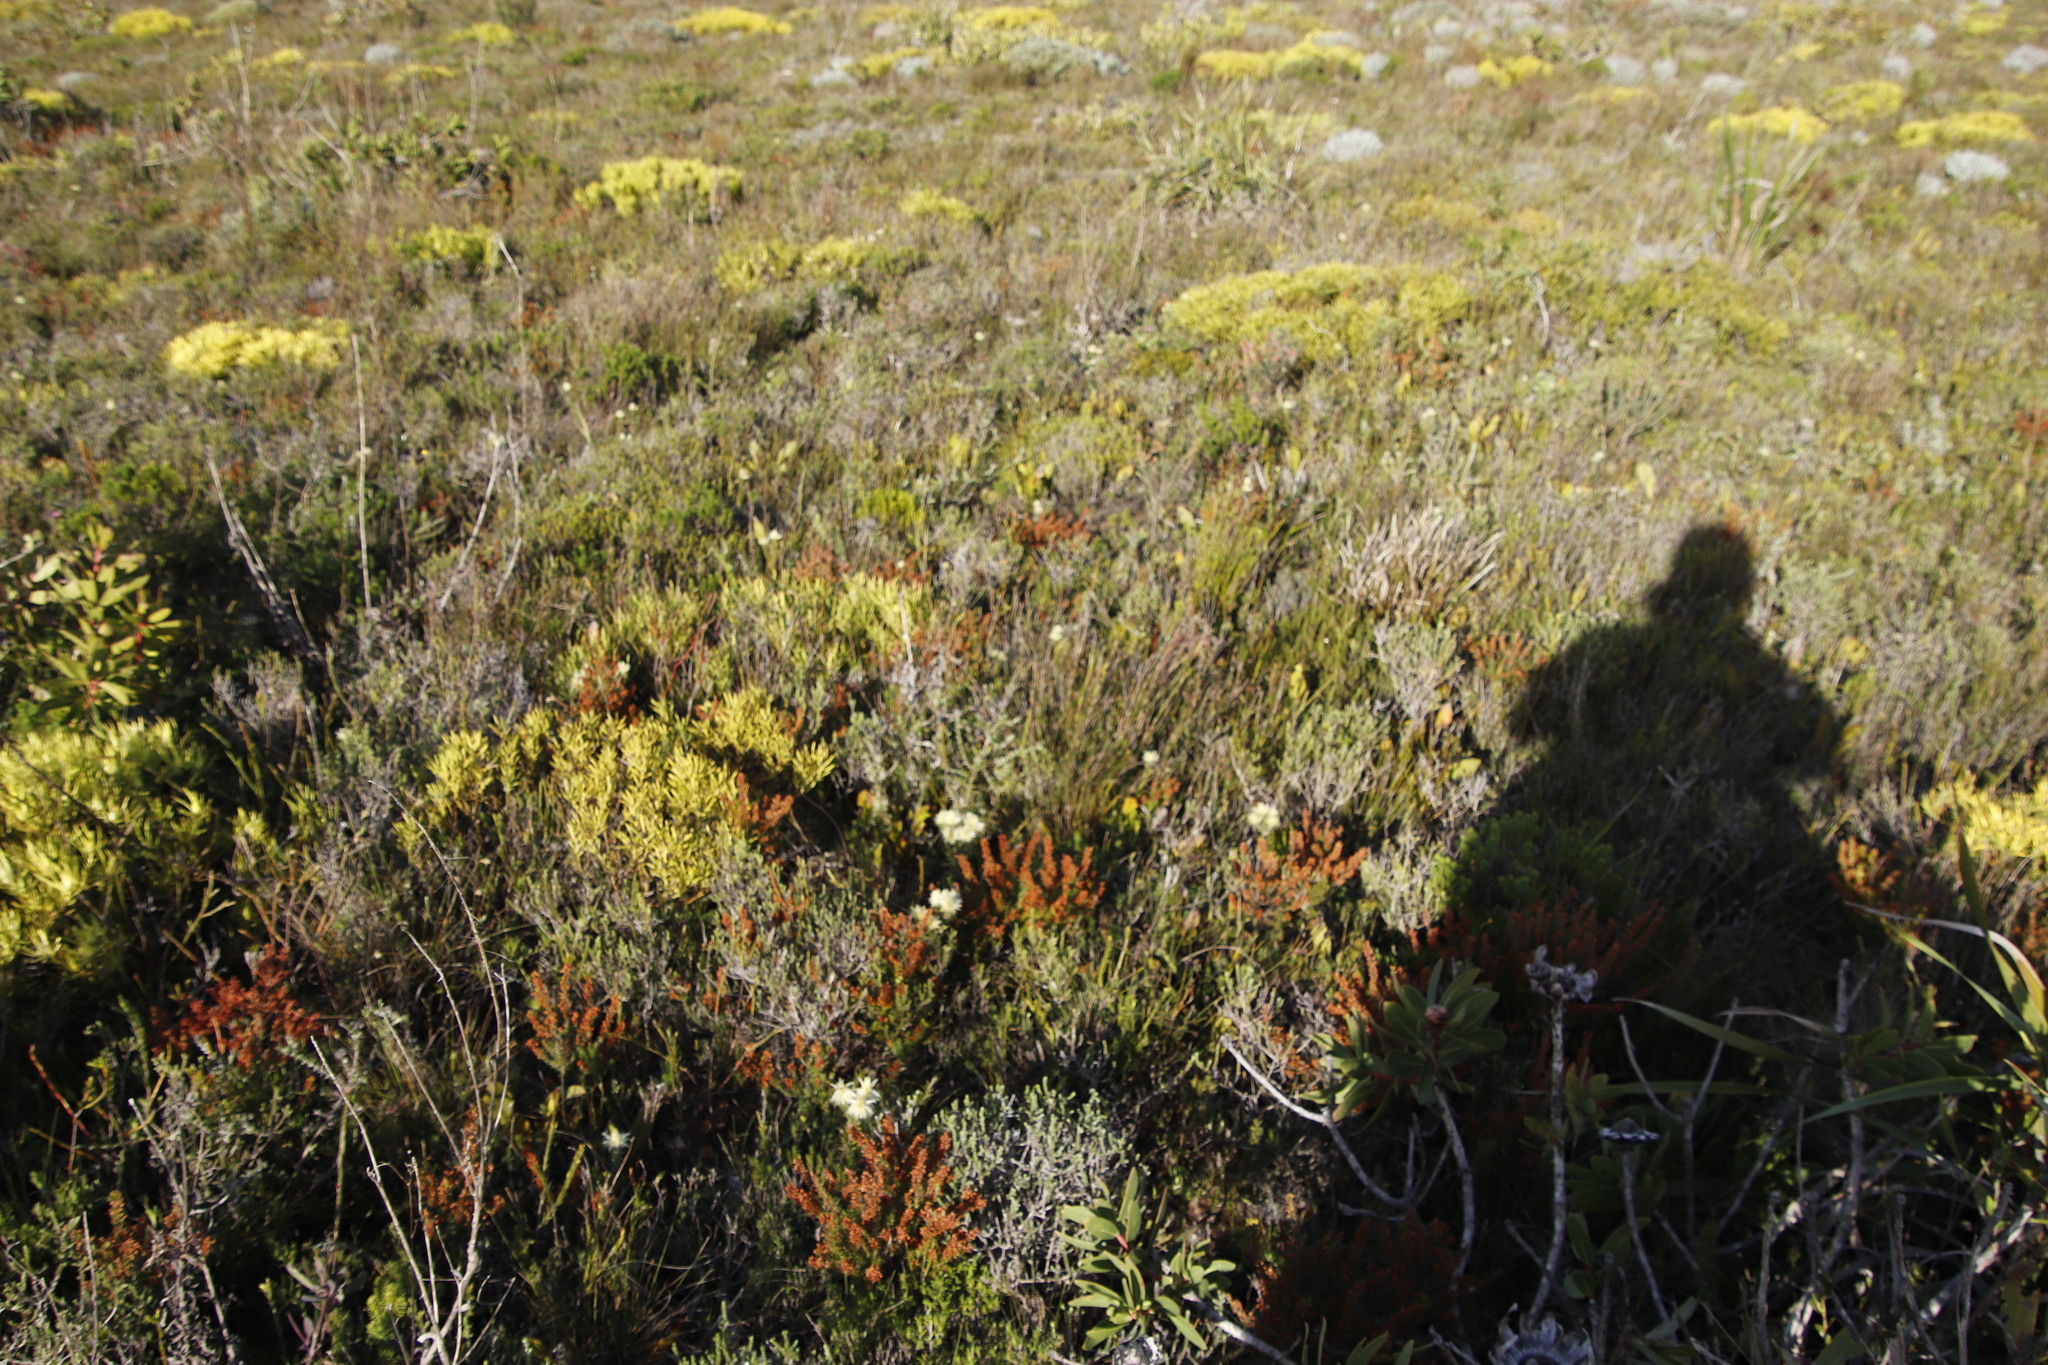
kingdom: Plantae
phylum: Tracheophyta
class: Magnoliopsida
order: Rosales
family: Rhamnaceae
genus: Phylica
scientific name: Phylica pubescens
